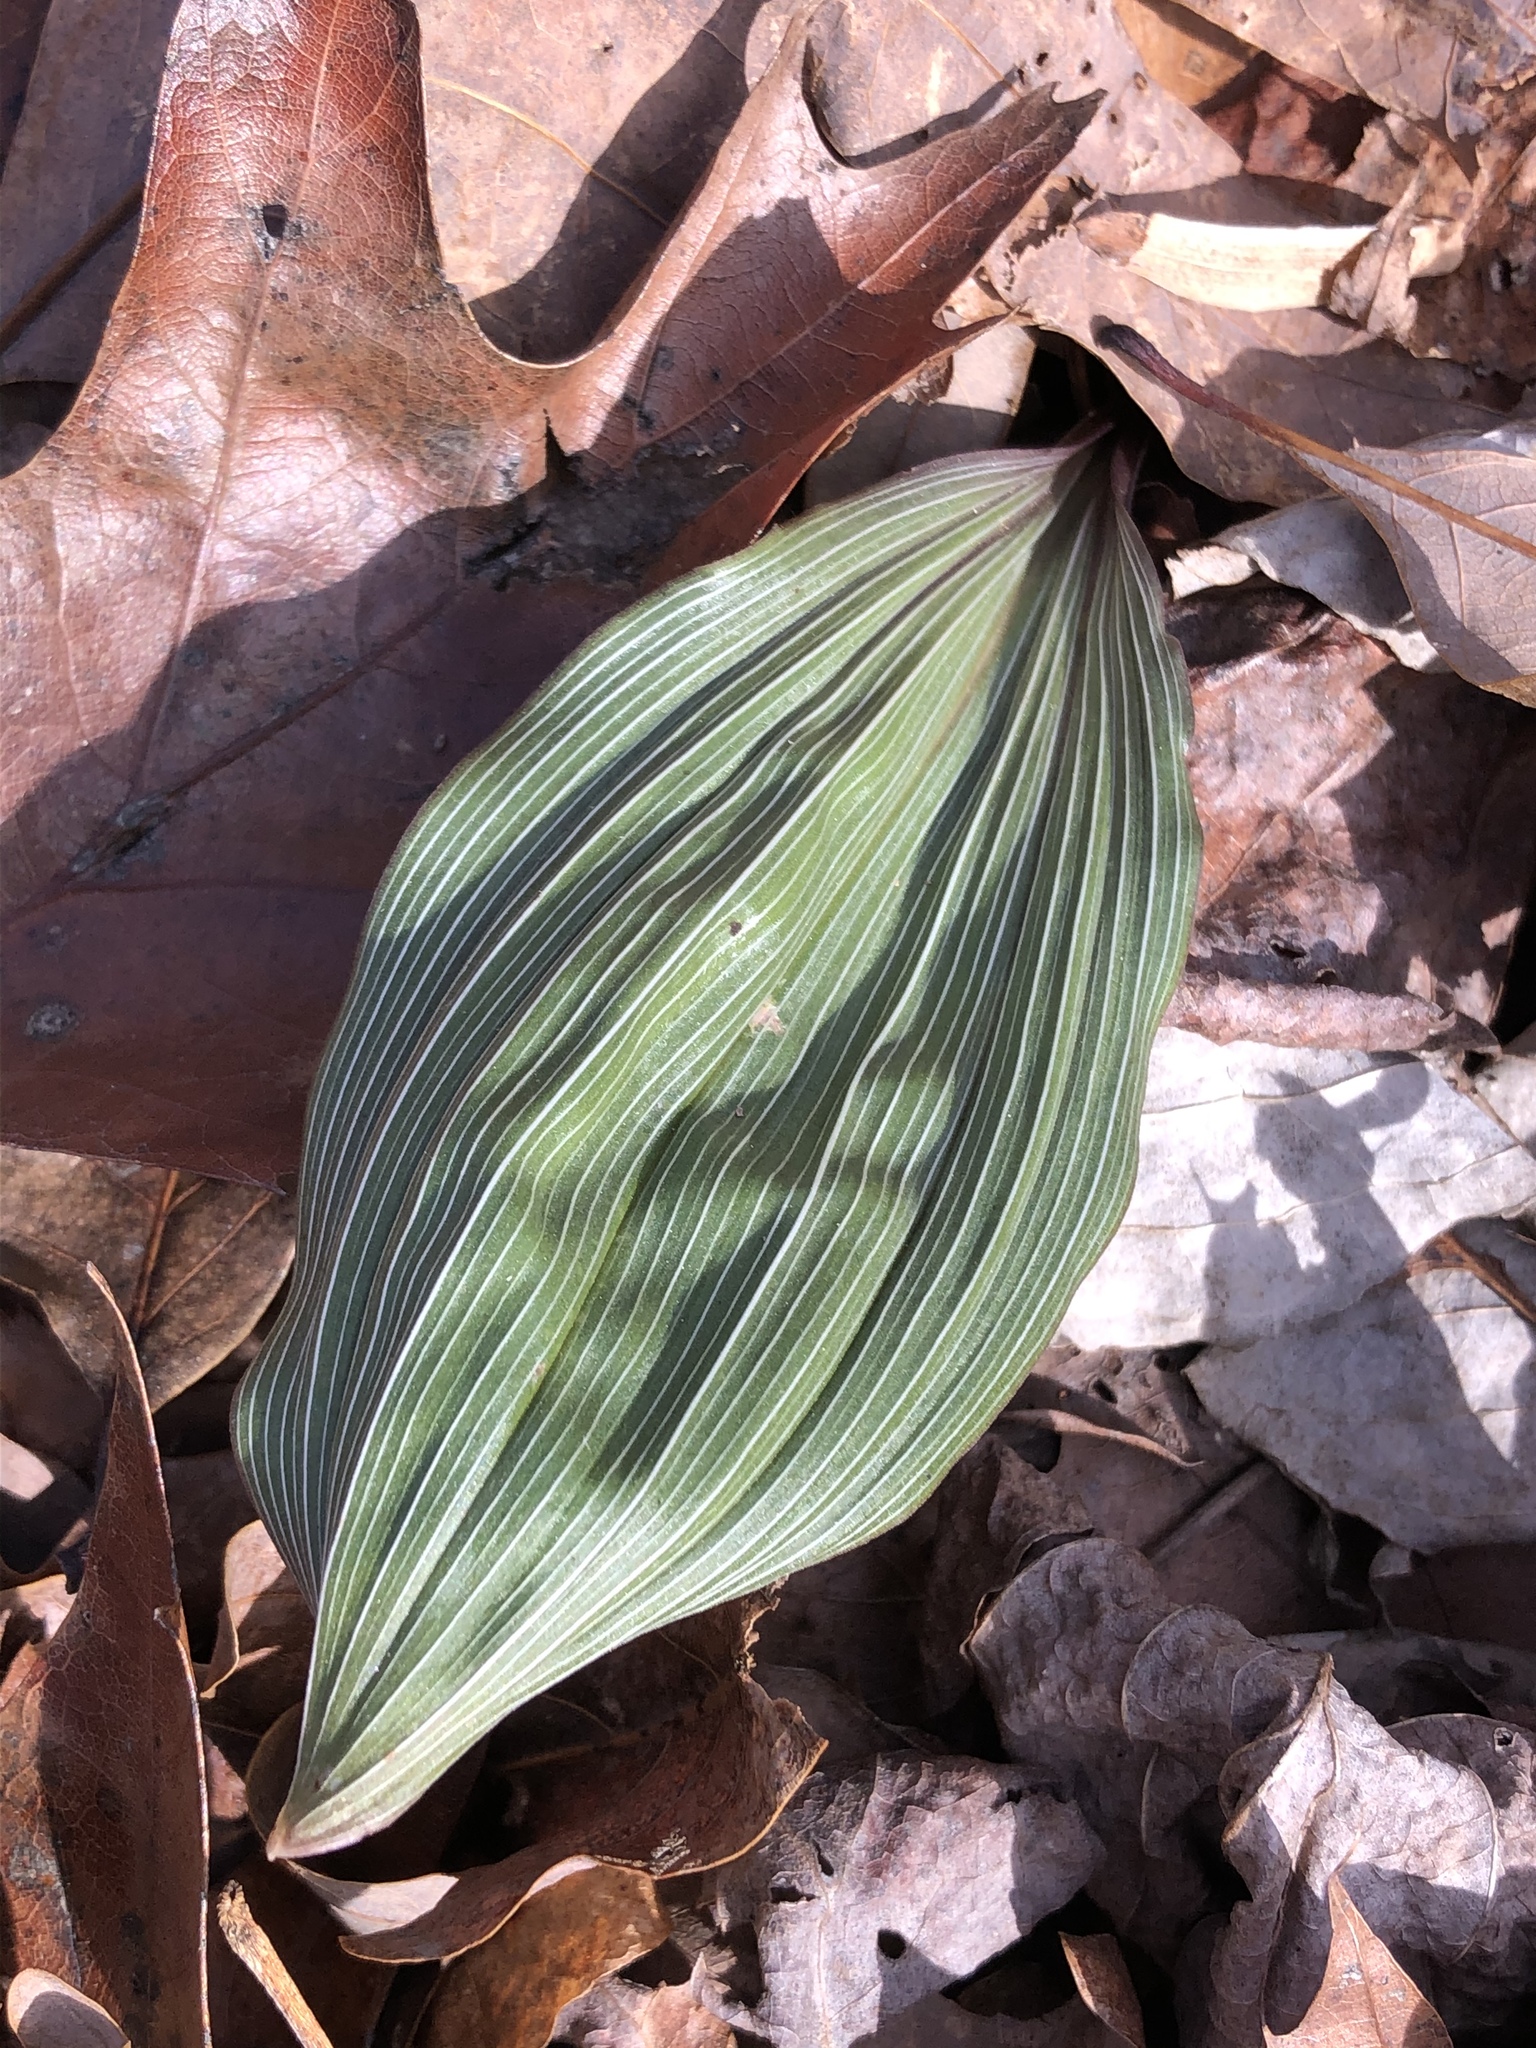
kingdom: Plantae
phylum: Tracheophyta
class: Liliopsida
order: Asparagales
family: Orchidaceae
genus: Aplectrum
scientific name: Aplectrum hyemale
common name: Adam-and-eve
